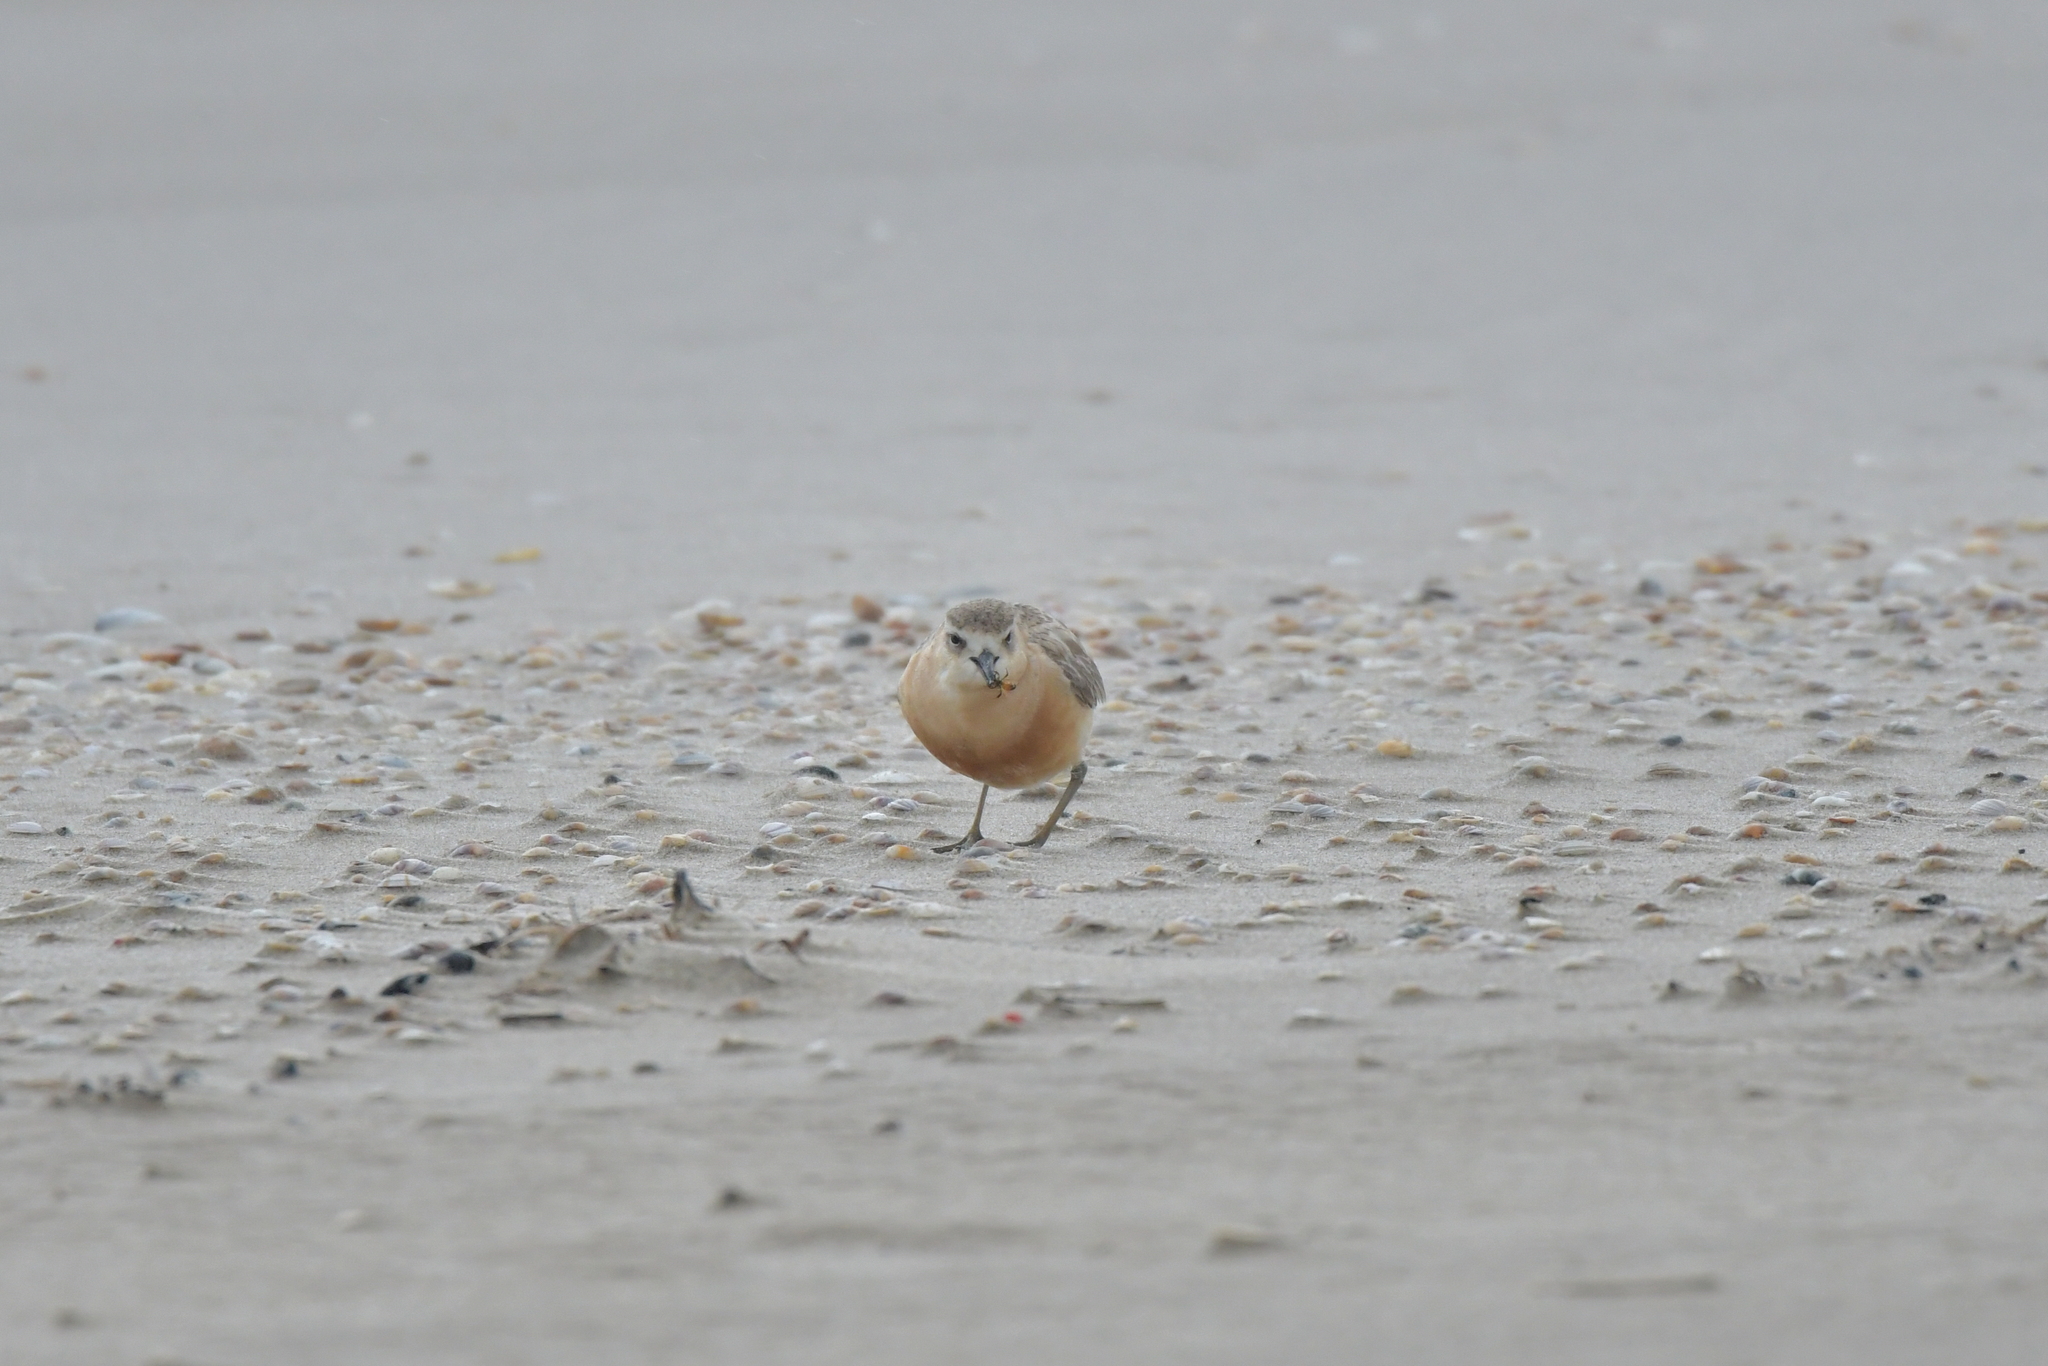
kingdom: Animalia
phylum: Chordata
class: Aves
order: Charadriiformes
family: Charadriidae
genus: Anarhynchus
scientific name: Anarhynchus
